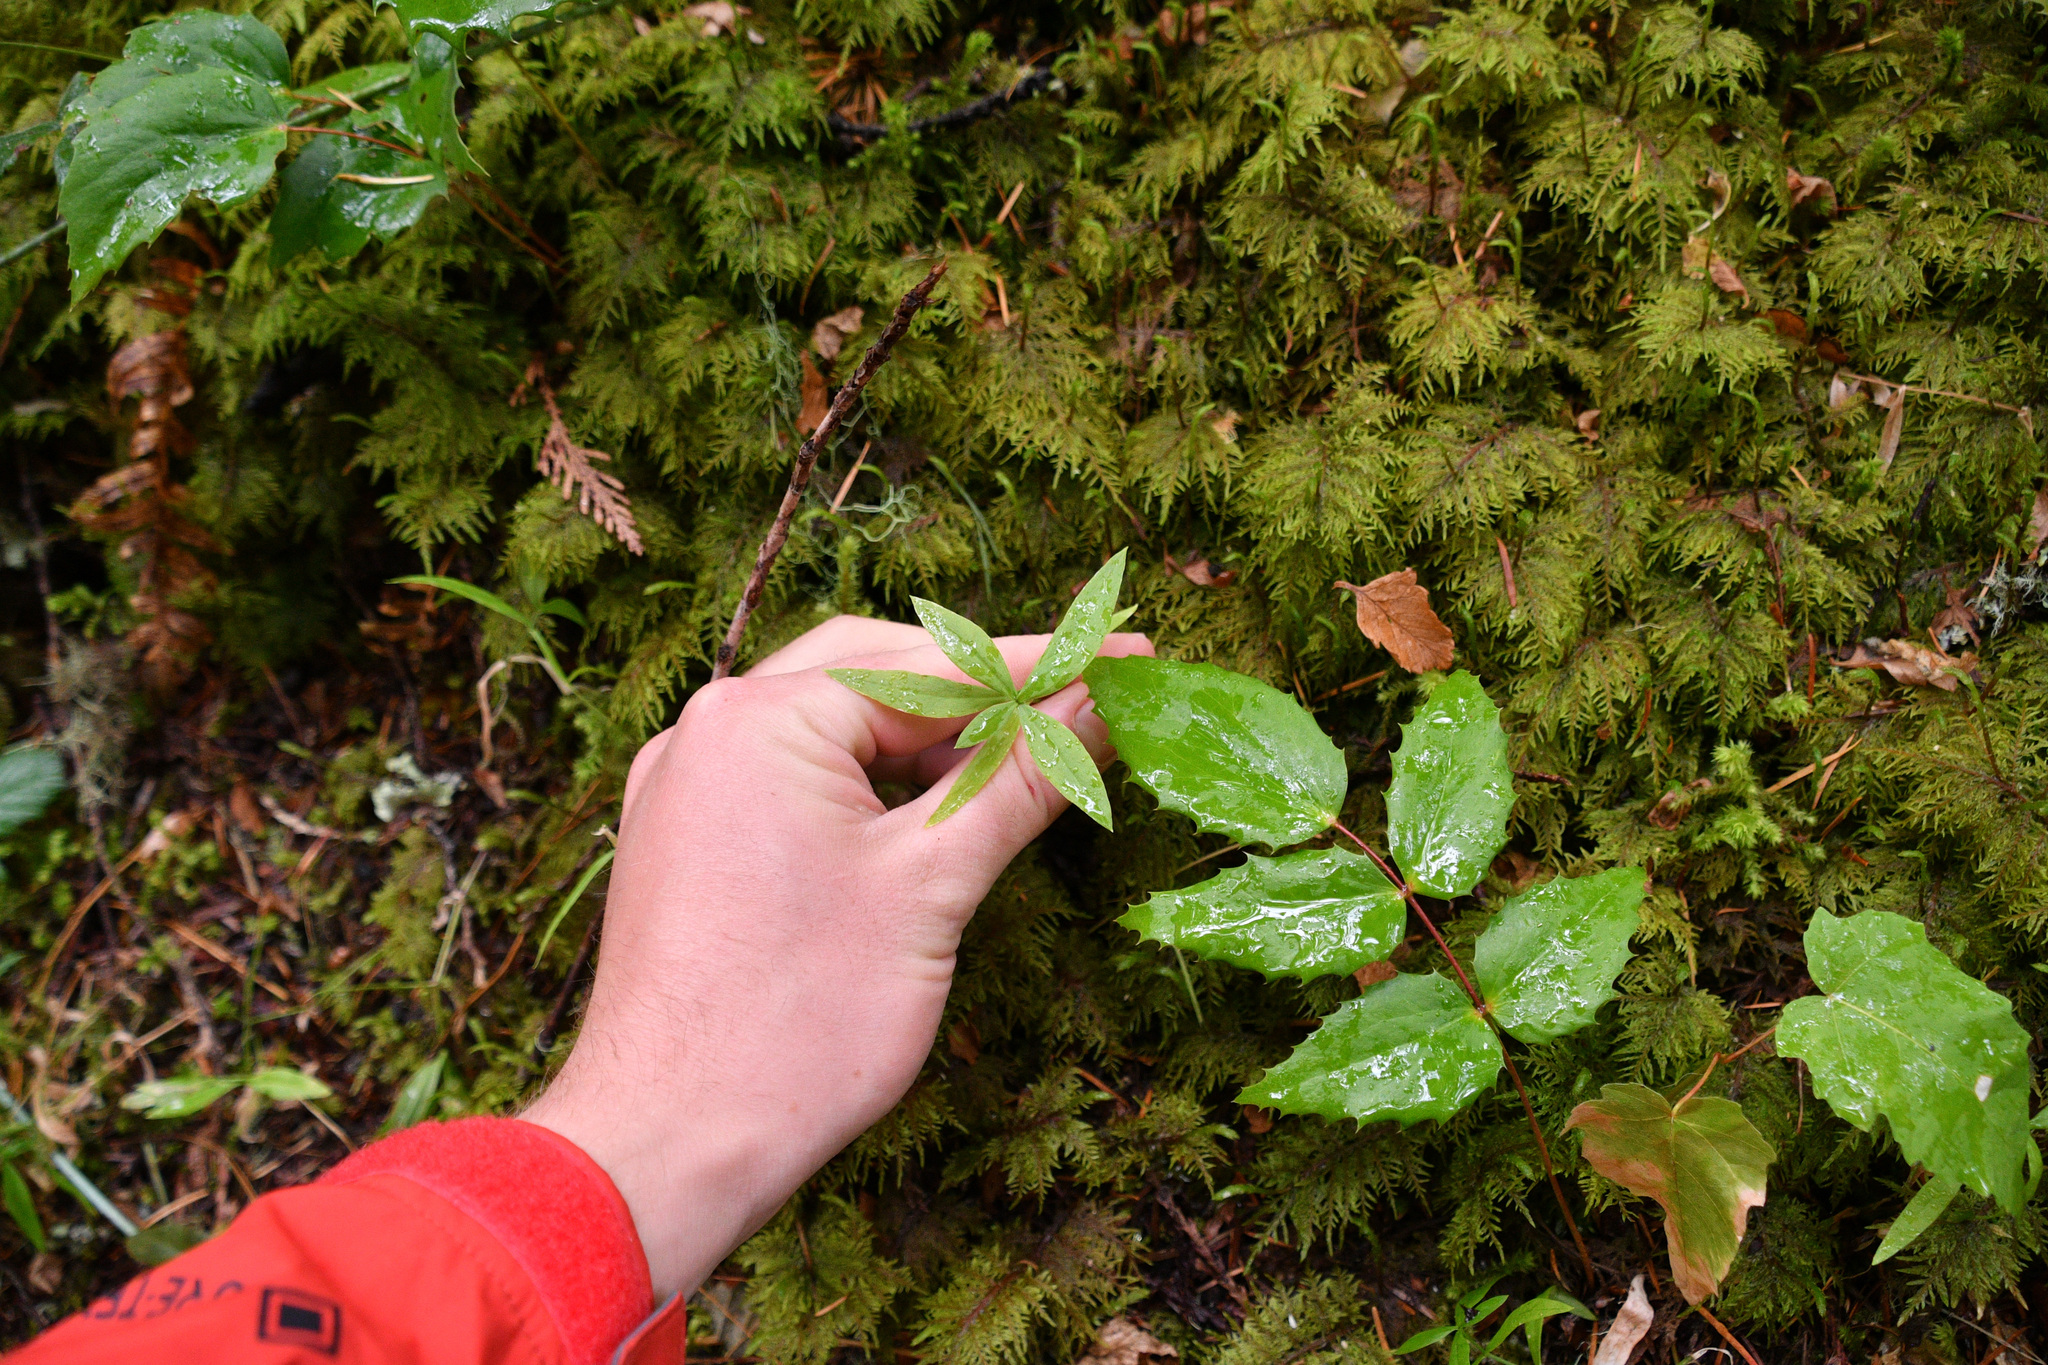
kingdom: Plantae
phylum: Tracheophyta
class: Magnoliopsida
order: Caryophyllales
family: Caryophyllaceae
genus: Moehringia
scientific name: Moehringia macrophylla
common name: Big-leaf sandwort
